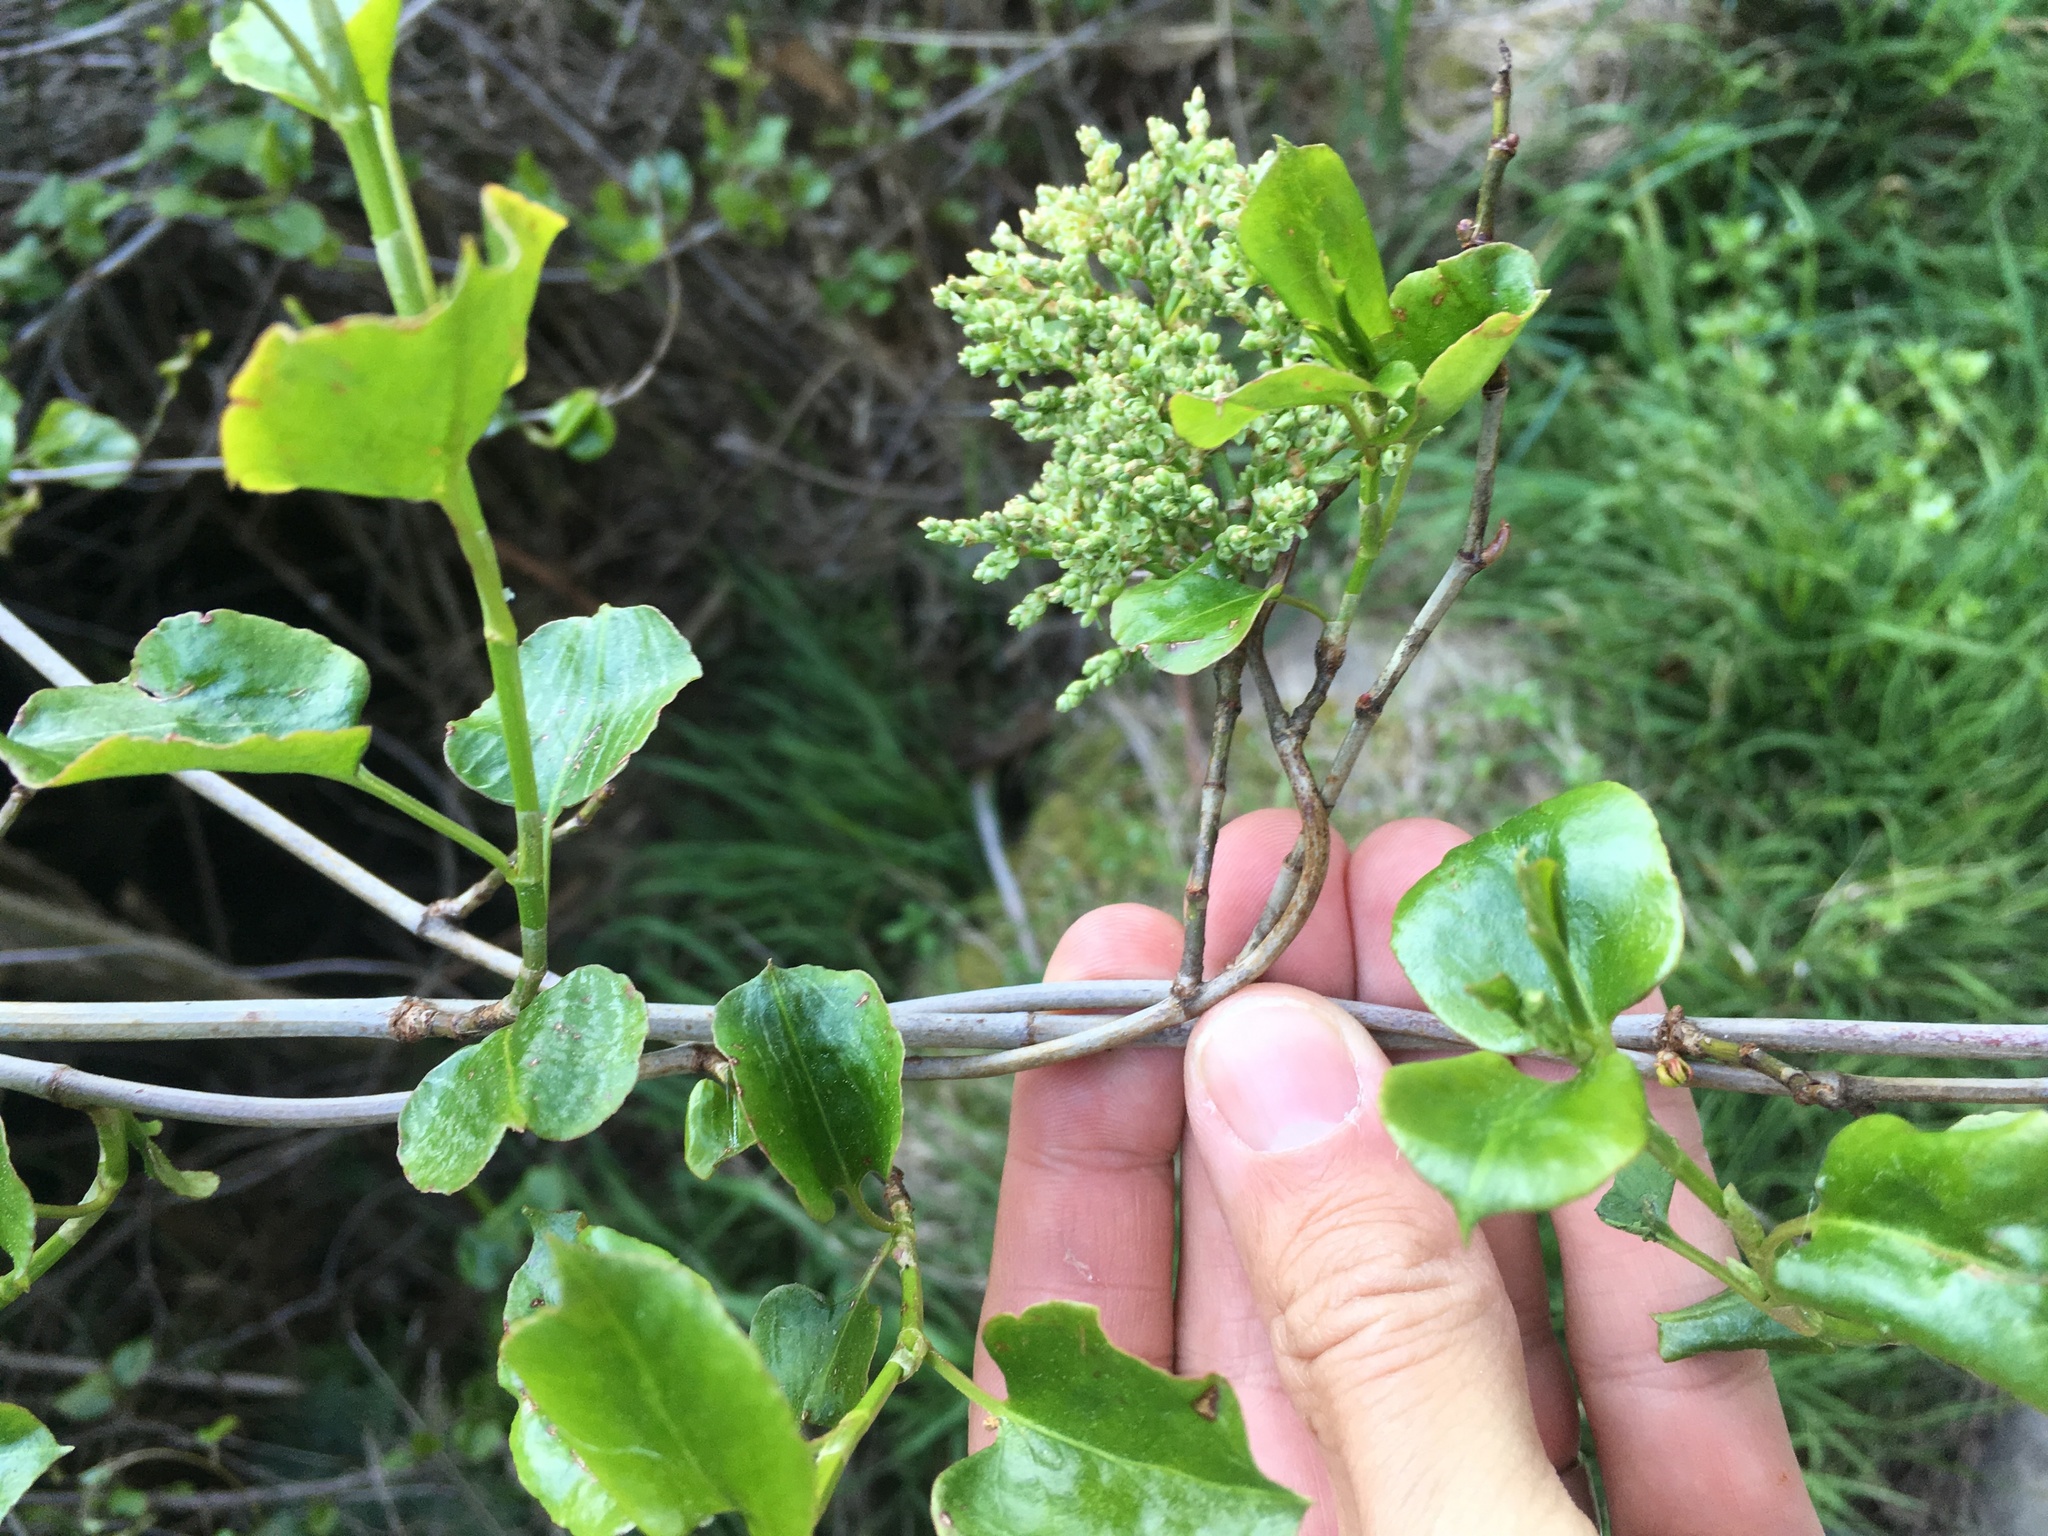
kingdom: Plantae
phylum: Tracheophyta
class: Magnoliopsida
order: Caryophyllales
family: Polygonaceae
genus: Muehlenbeckia
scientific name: Muehlenbeckia australis
